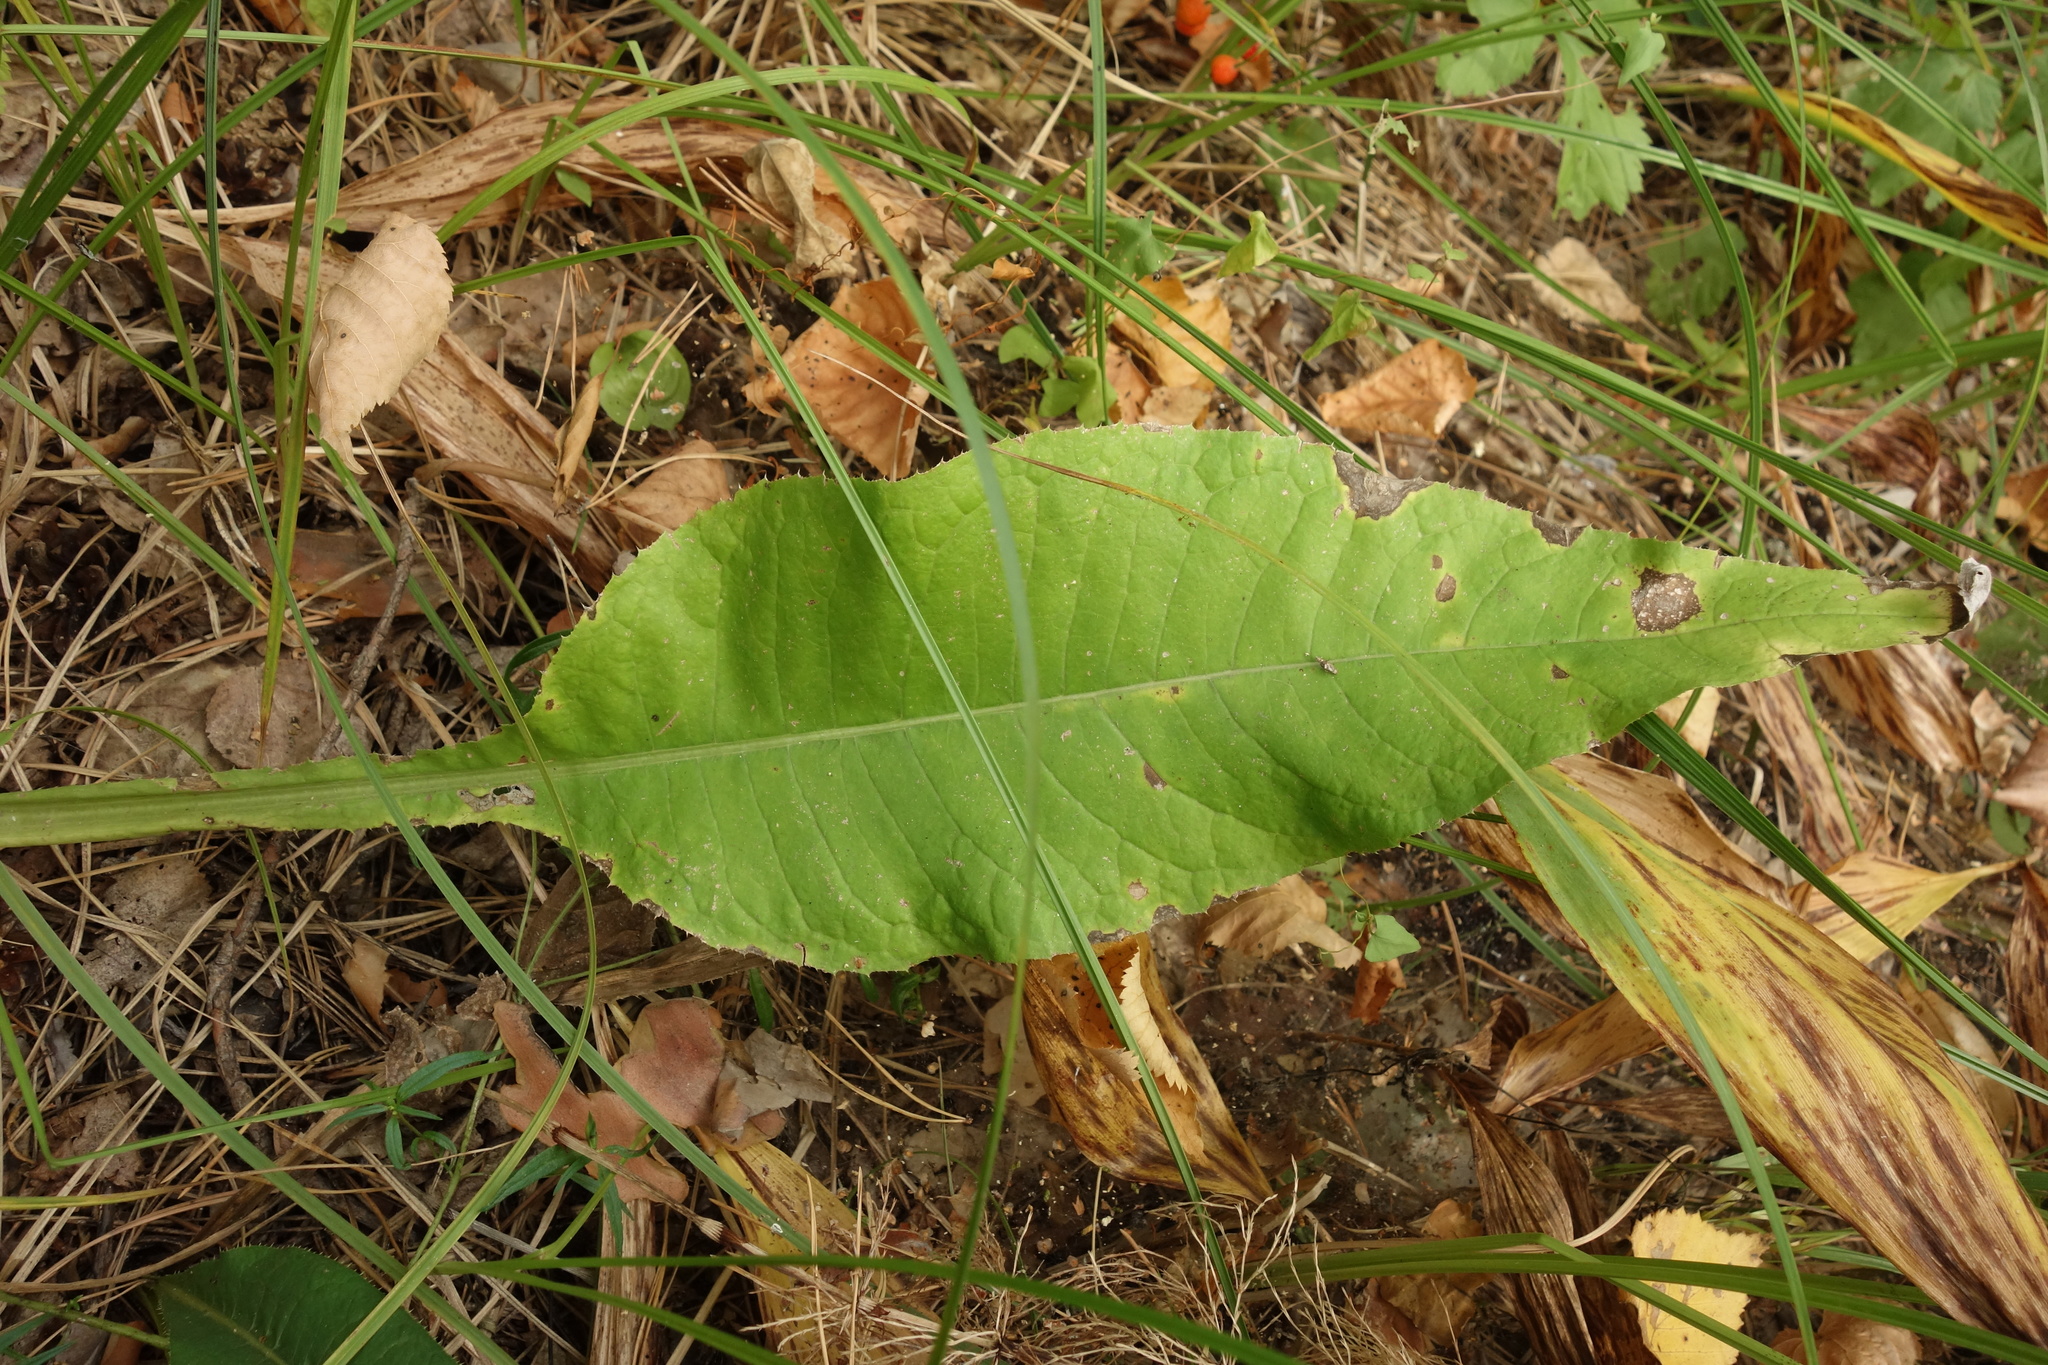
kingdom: Plantae
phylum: Tracheophyta
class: Magnoliopsida
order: Asterales
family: Asteraceae
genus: Cirsium
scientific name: Cirsium heterophyllum
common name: Melancholy thistle
